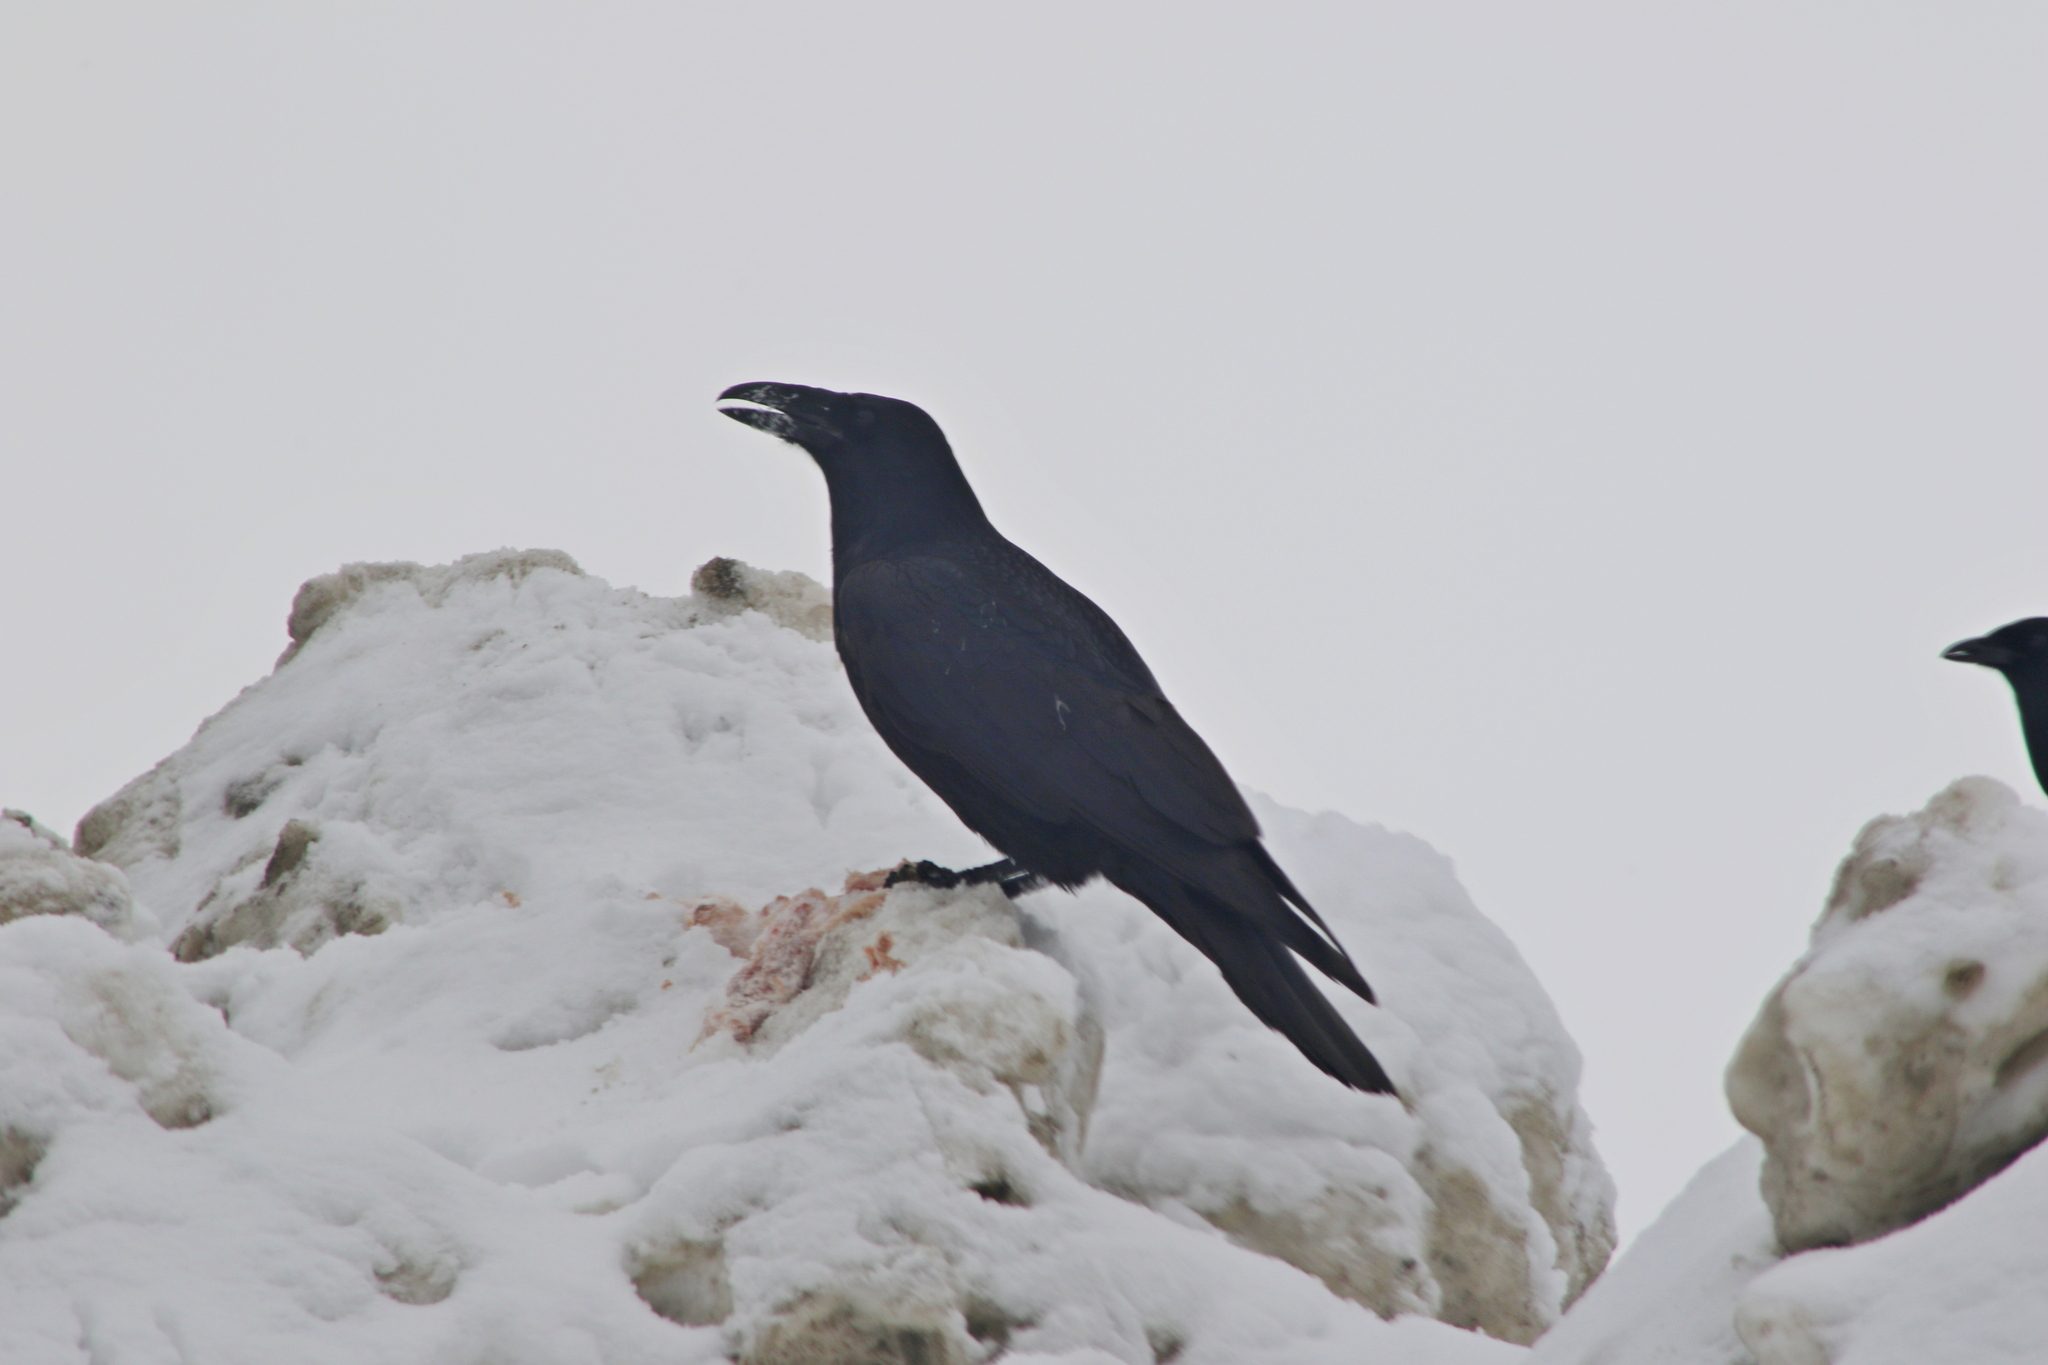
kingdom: Animalia
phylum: Chordata
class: Aves
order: Passeriformes
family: Corvidae
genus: Corvus
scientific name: Corvus corax
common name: Common raven
